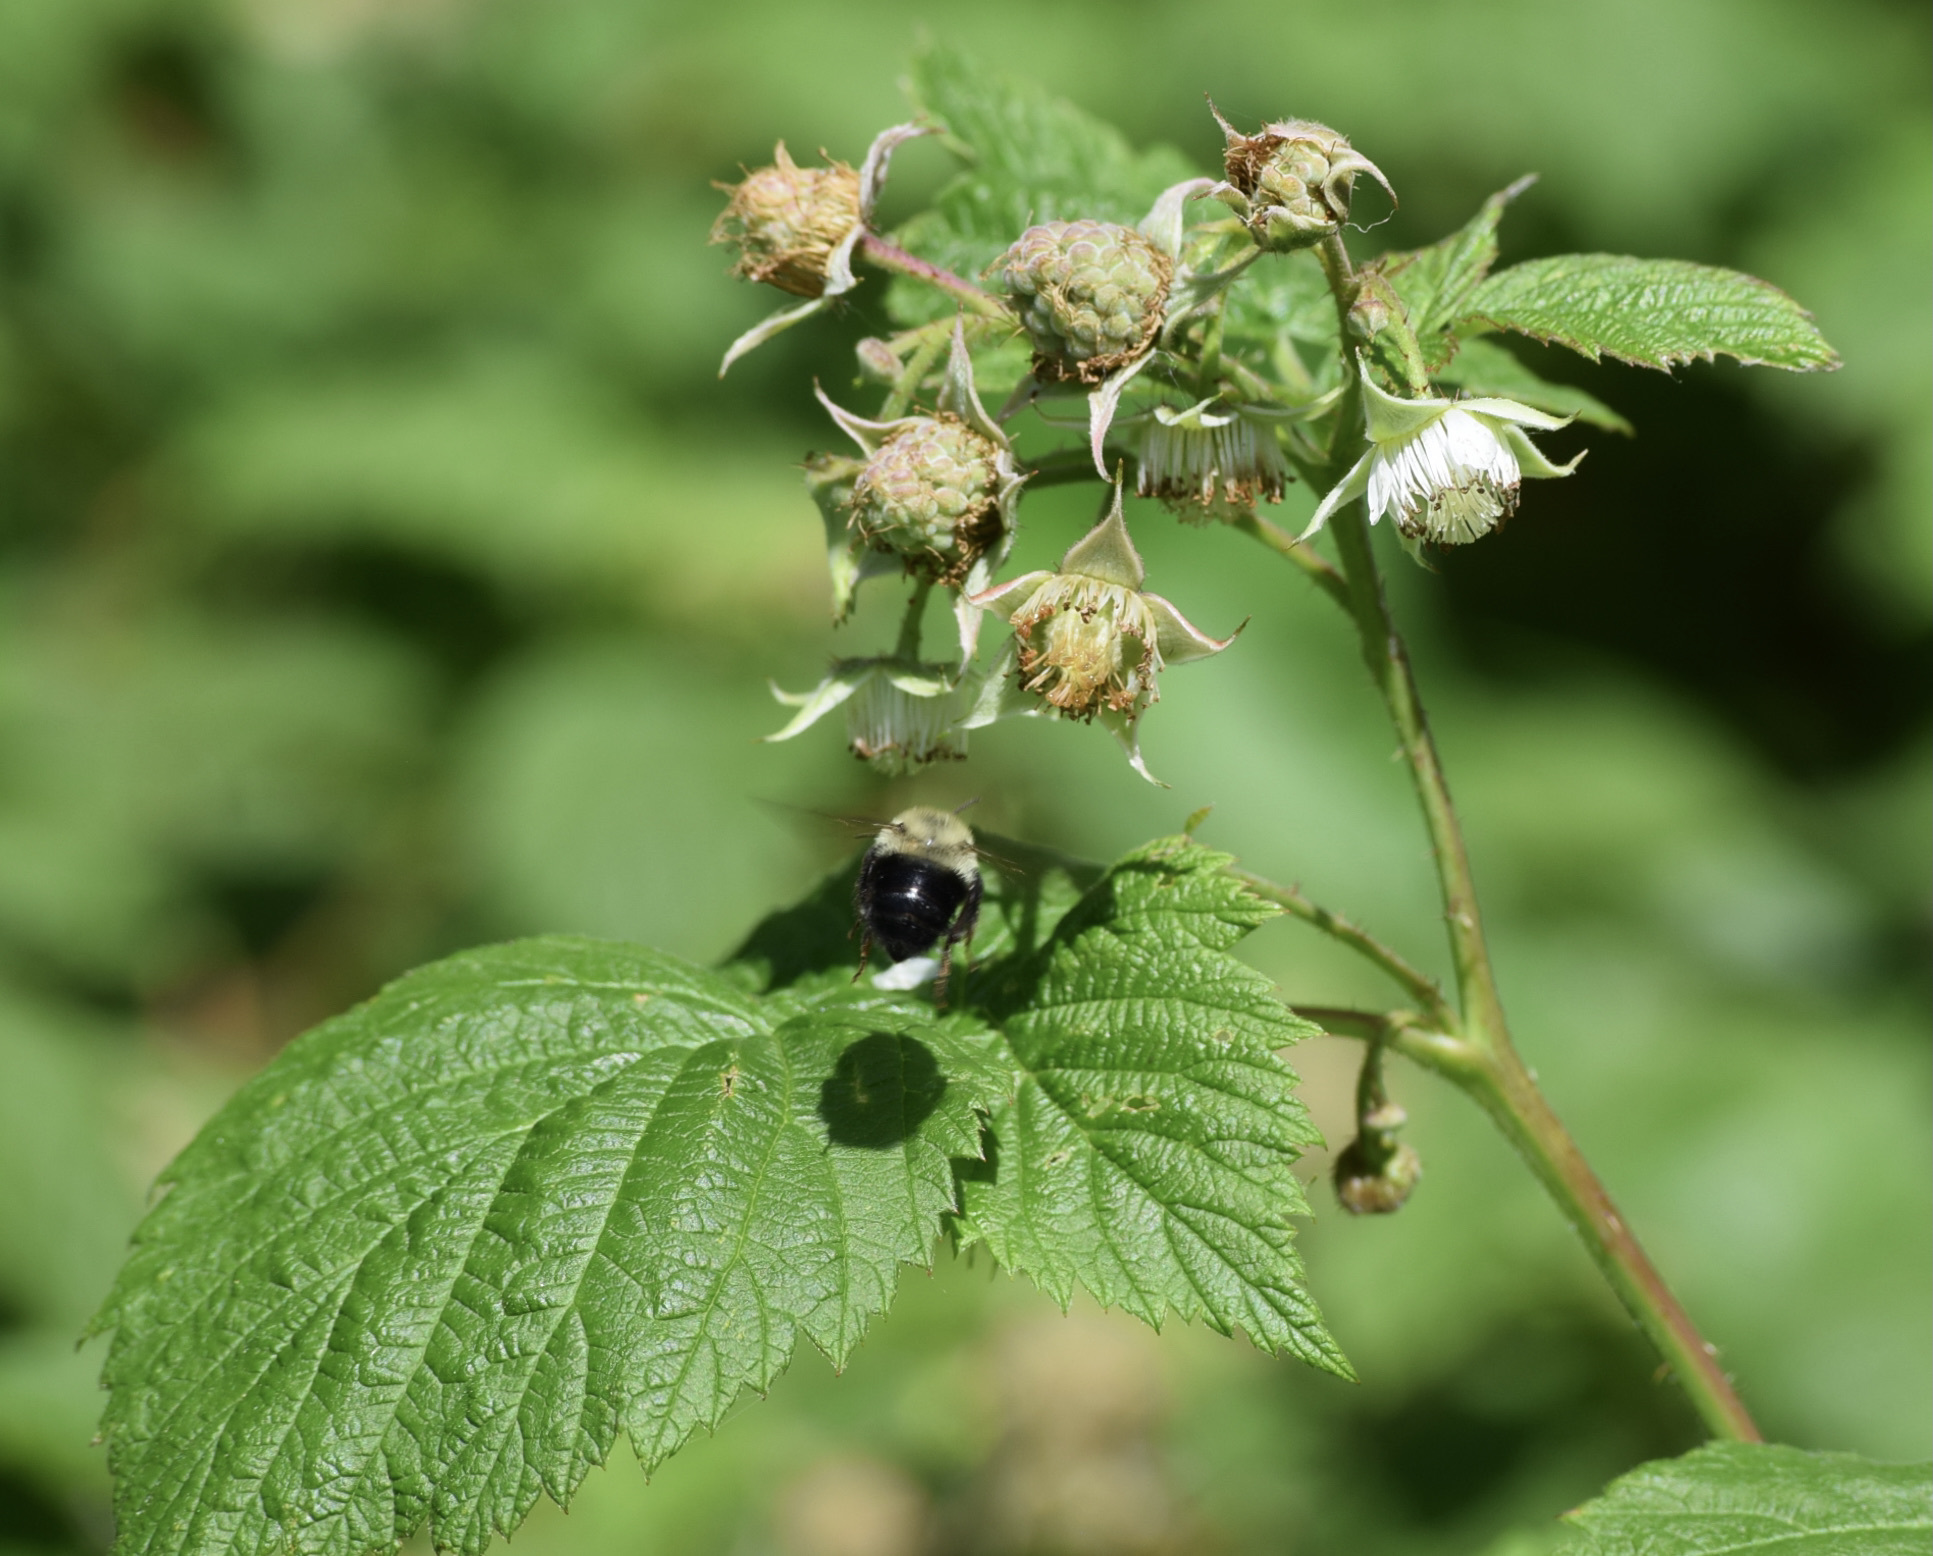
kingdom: Animalia
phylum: Arthropoda
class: Insecta
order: Hymenoptera
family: Apidae
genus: Bombus
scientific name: Bombus bimaculatus
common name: Two-spotted bumble bee
